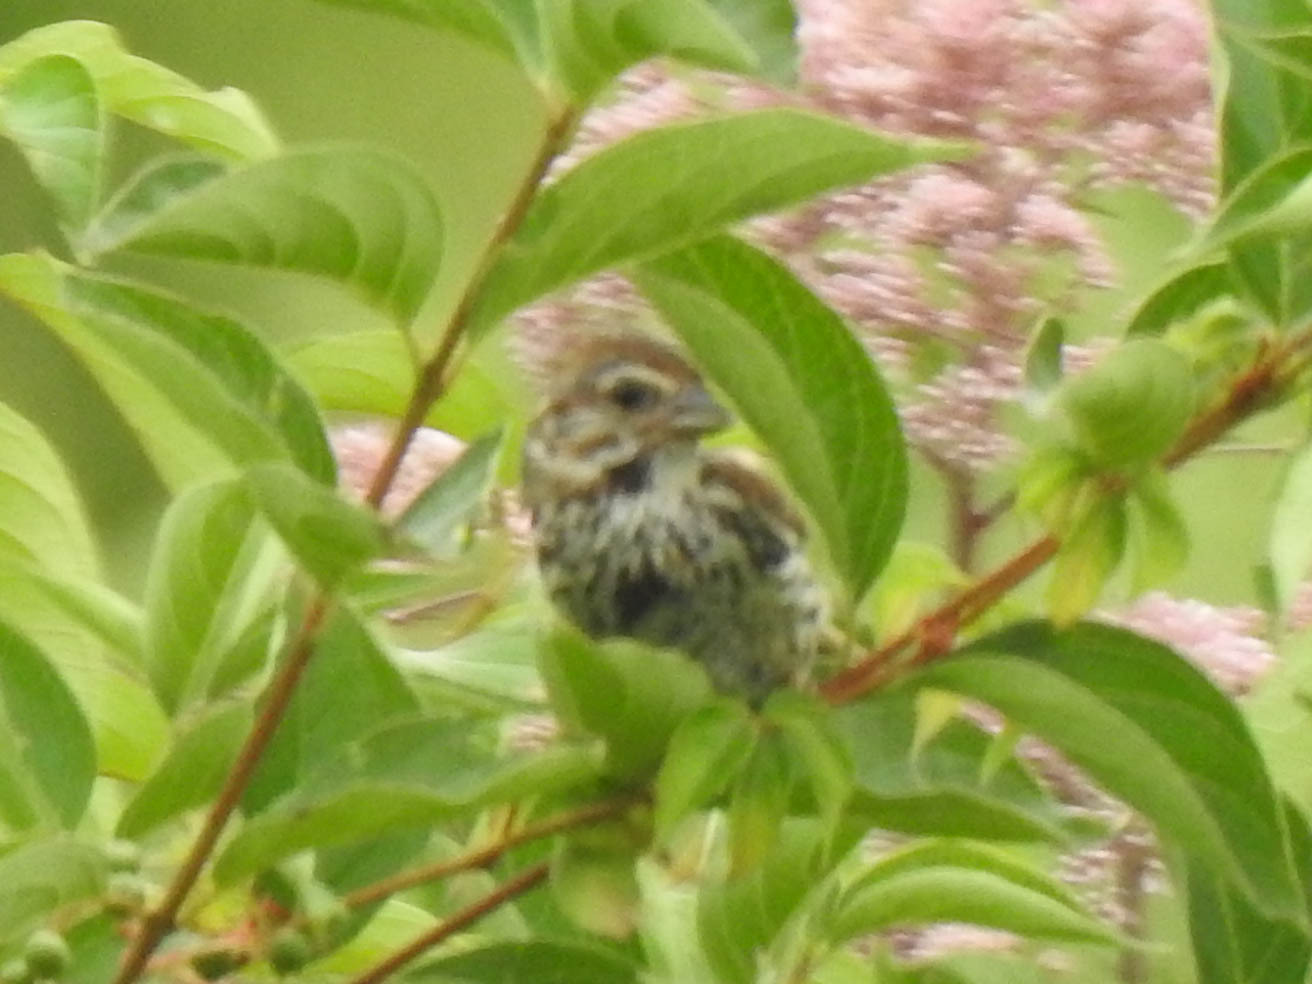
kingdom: Animalia
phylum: Chordata
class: Aves
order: Passeriformes
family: Passerellidae
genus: Melospiza
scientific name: Melospiza melodia
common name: Song sparrow
